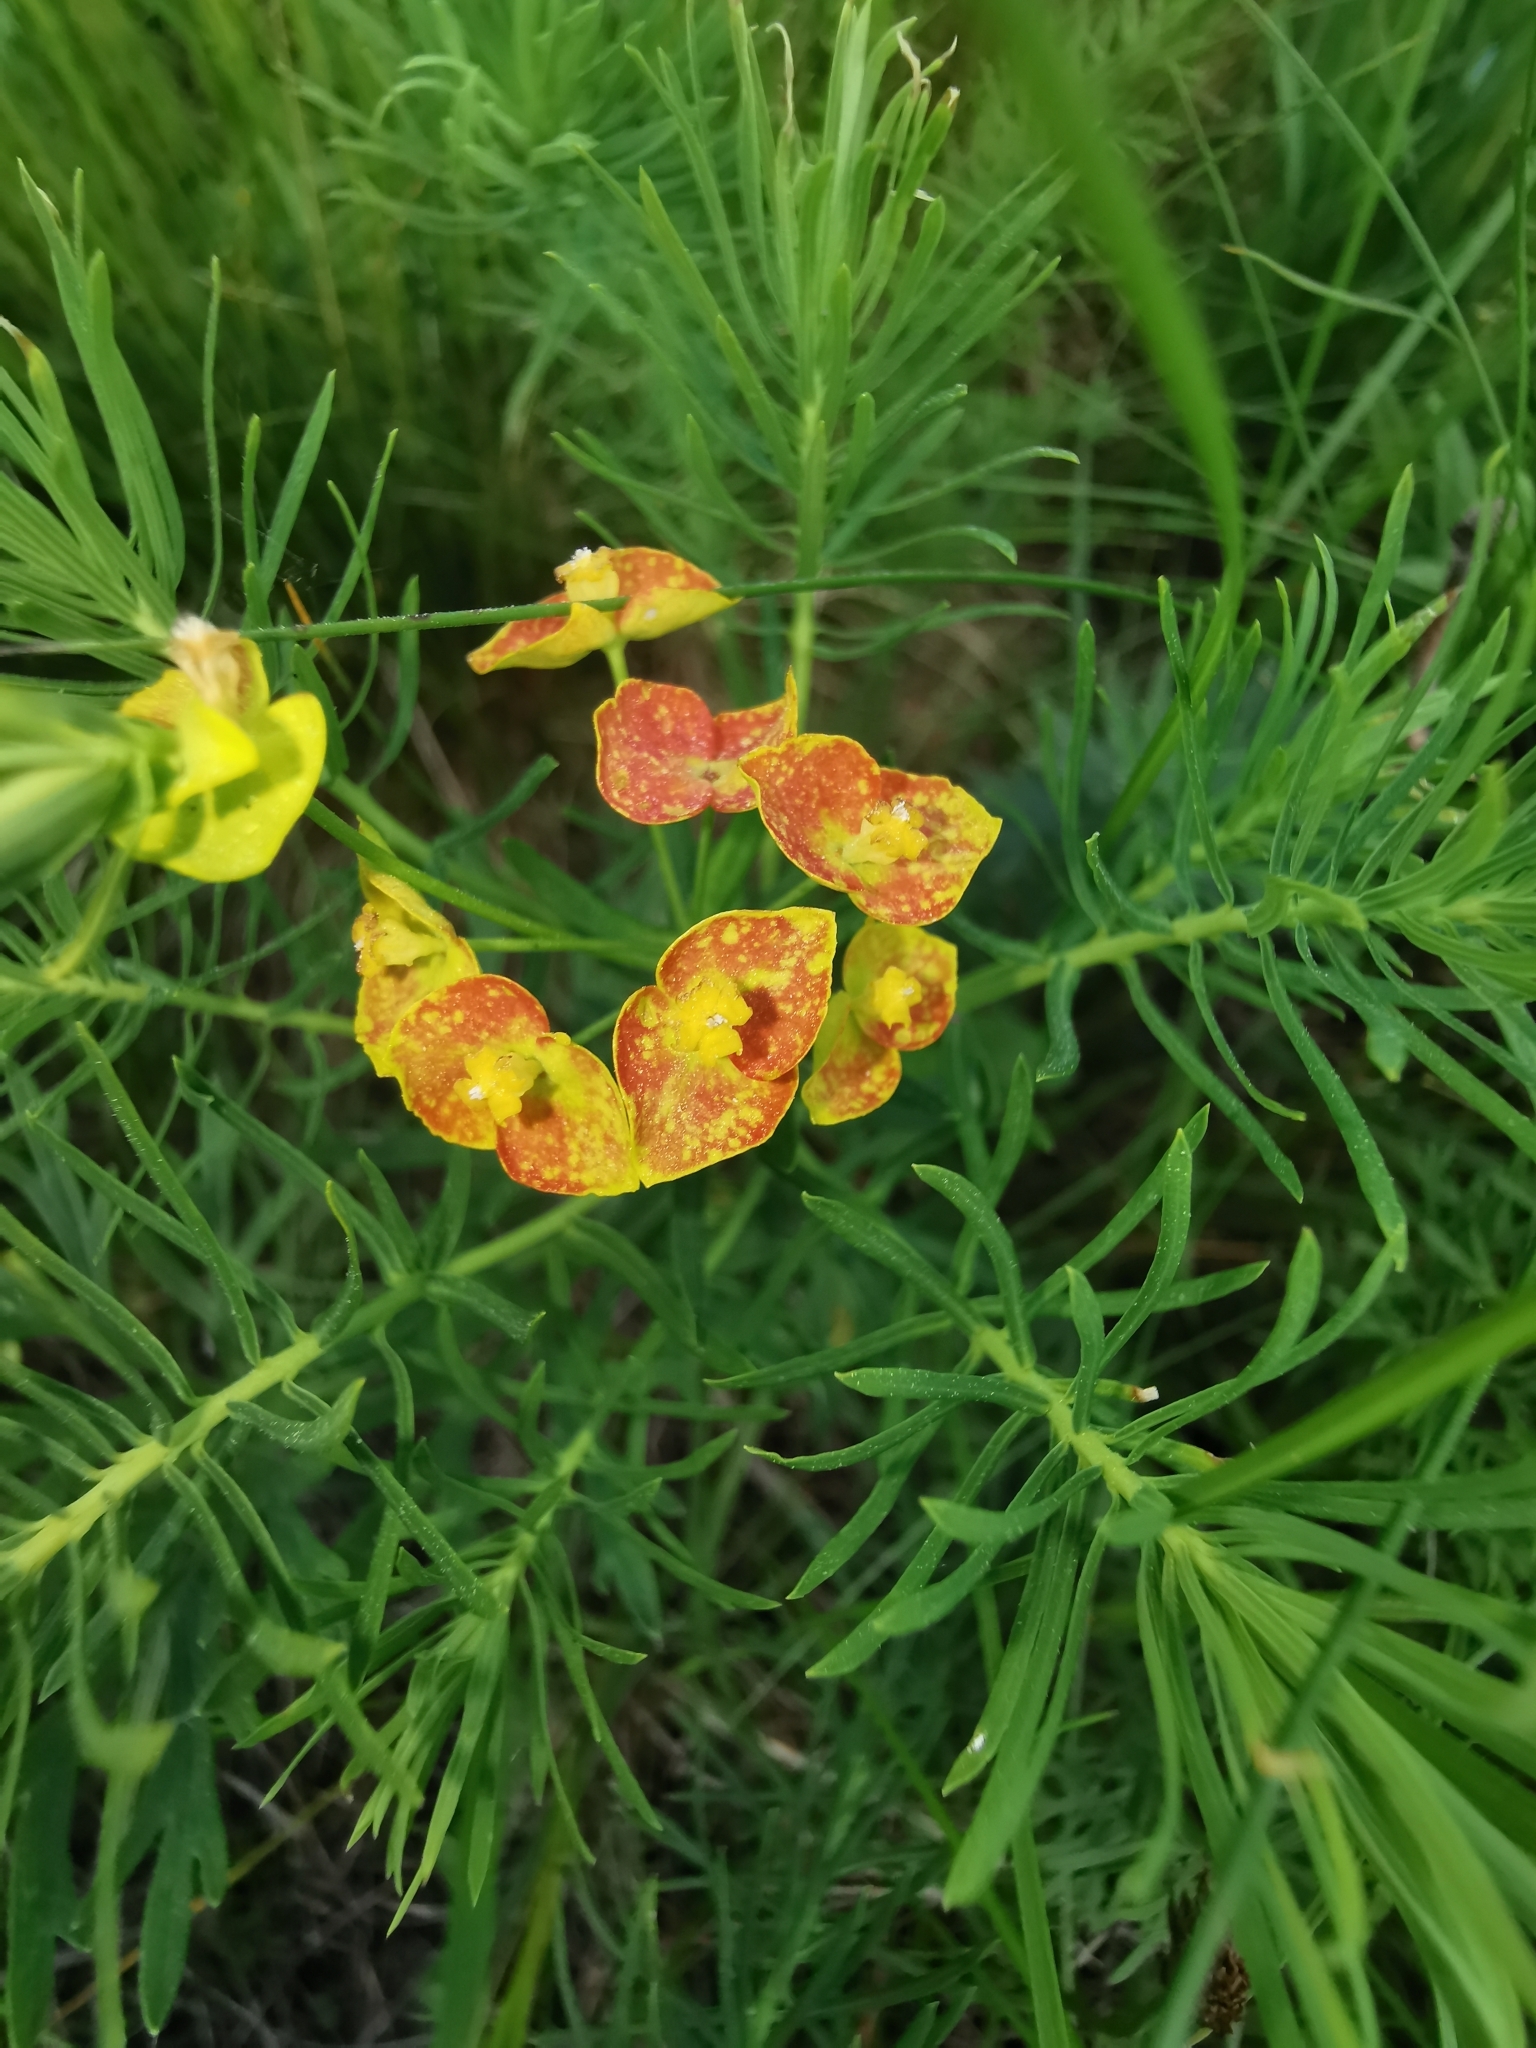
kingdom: Plantae
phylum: Tracheophyta
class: Magnoliopsida
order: Malpighiales
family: Euphorbiaceae
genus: Euphorbia
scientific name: Euphorbia cyparissias
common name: Cypress spurge
